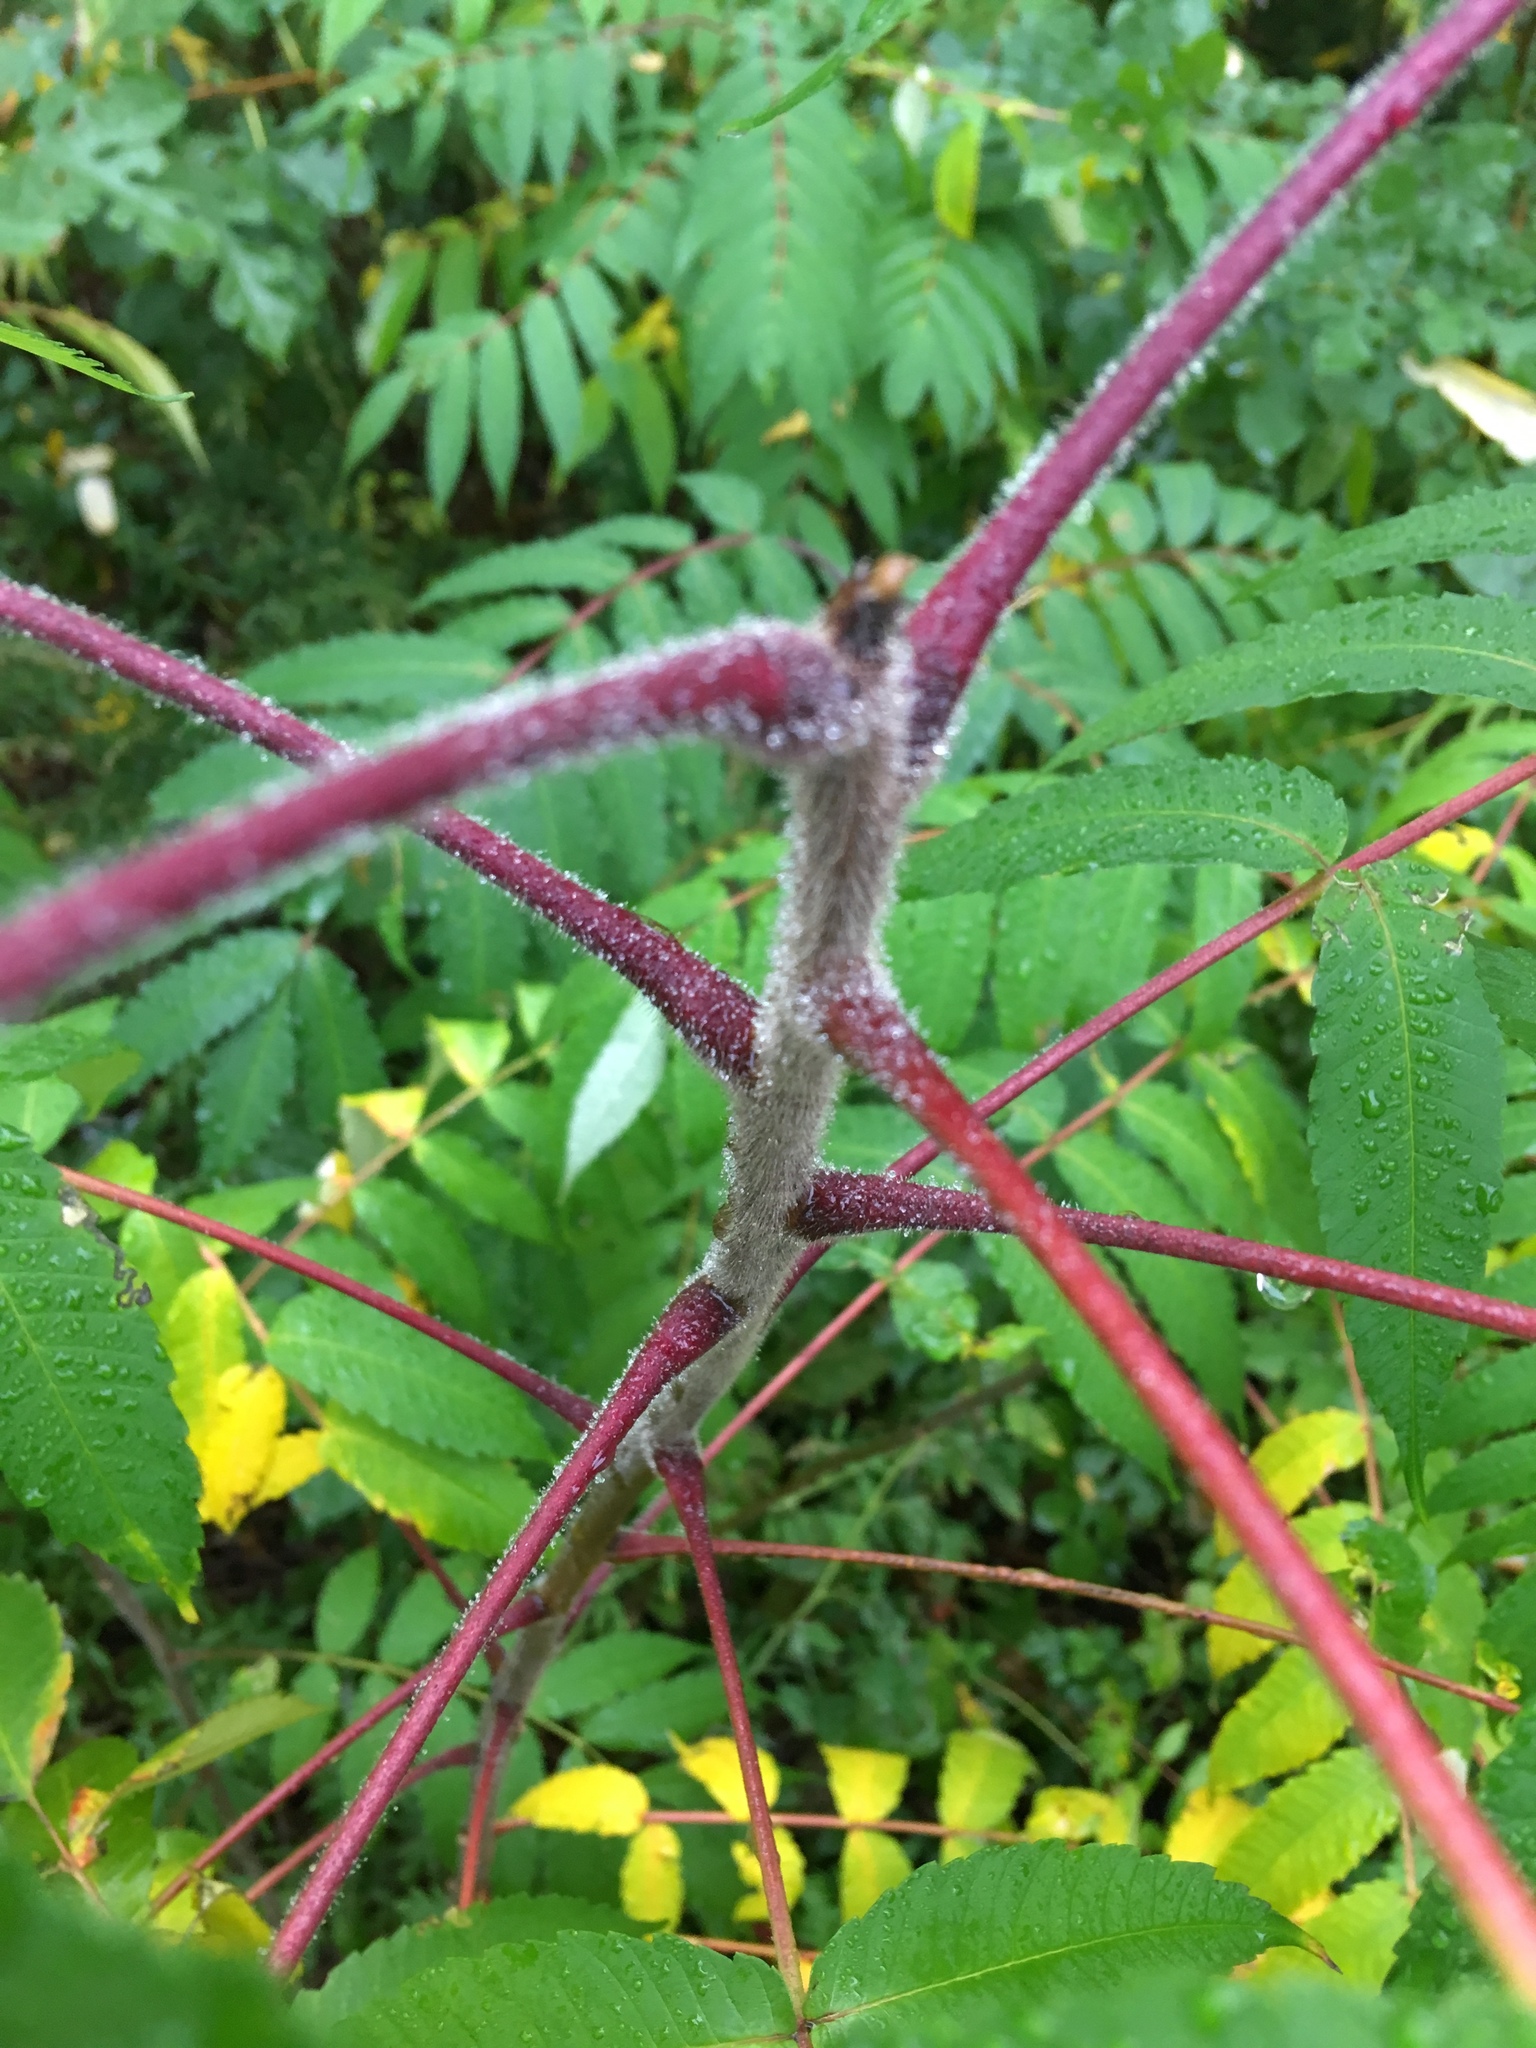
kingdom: Plantae
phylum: Tracheophyta
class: Magnoliopsida
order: Sapindales
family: Anacardiaceae
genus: Rhus
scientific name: Rhus typhina
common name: Staghorn sumac
